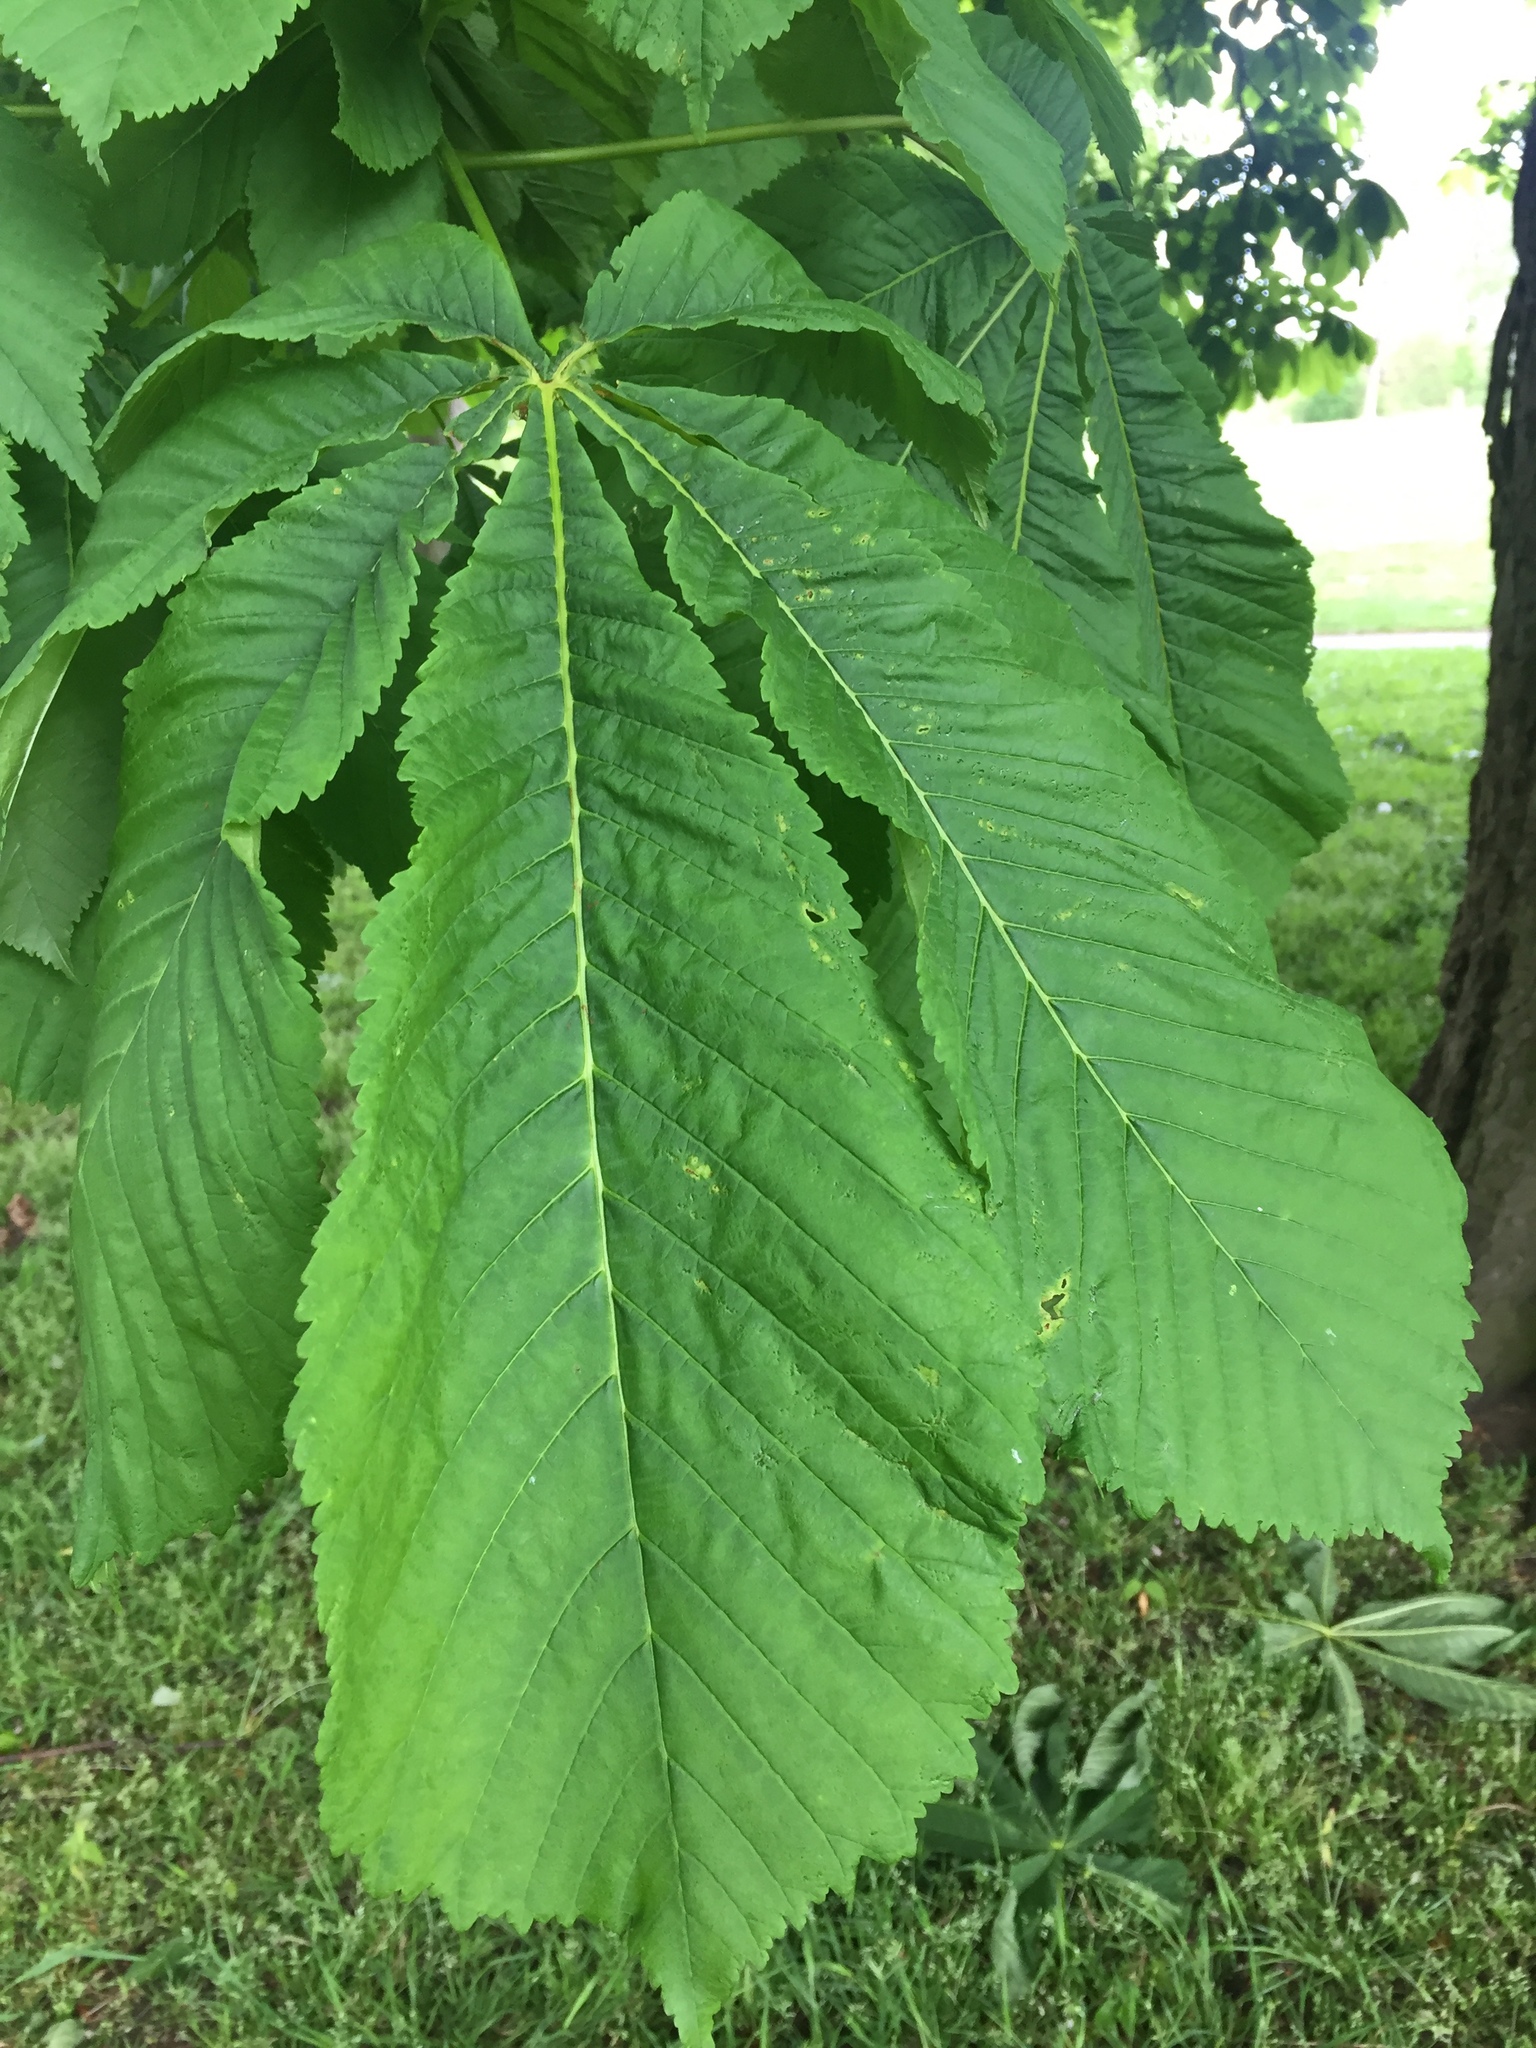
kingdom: Plantae
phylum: Tracheophyta
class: Magnoliopsida
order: Sapindales
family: Sapindaceae
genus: Aesculus
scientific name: Aesculus hippocastanum
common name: Horse-chestnut
